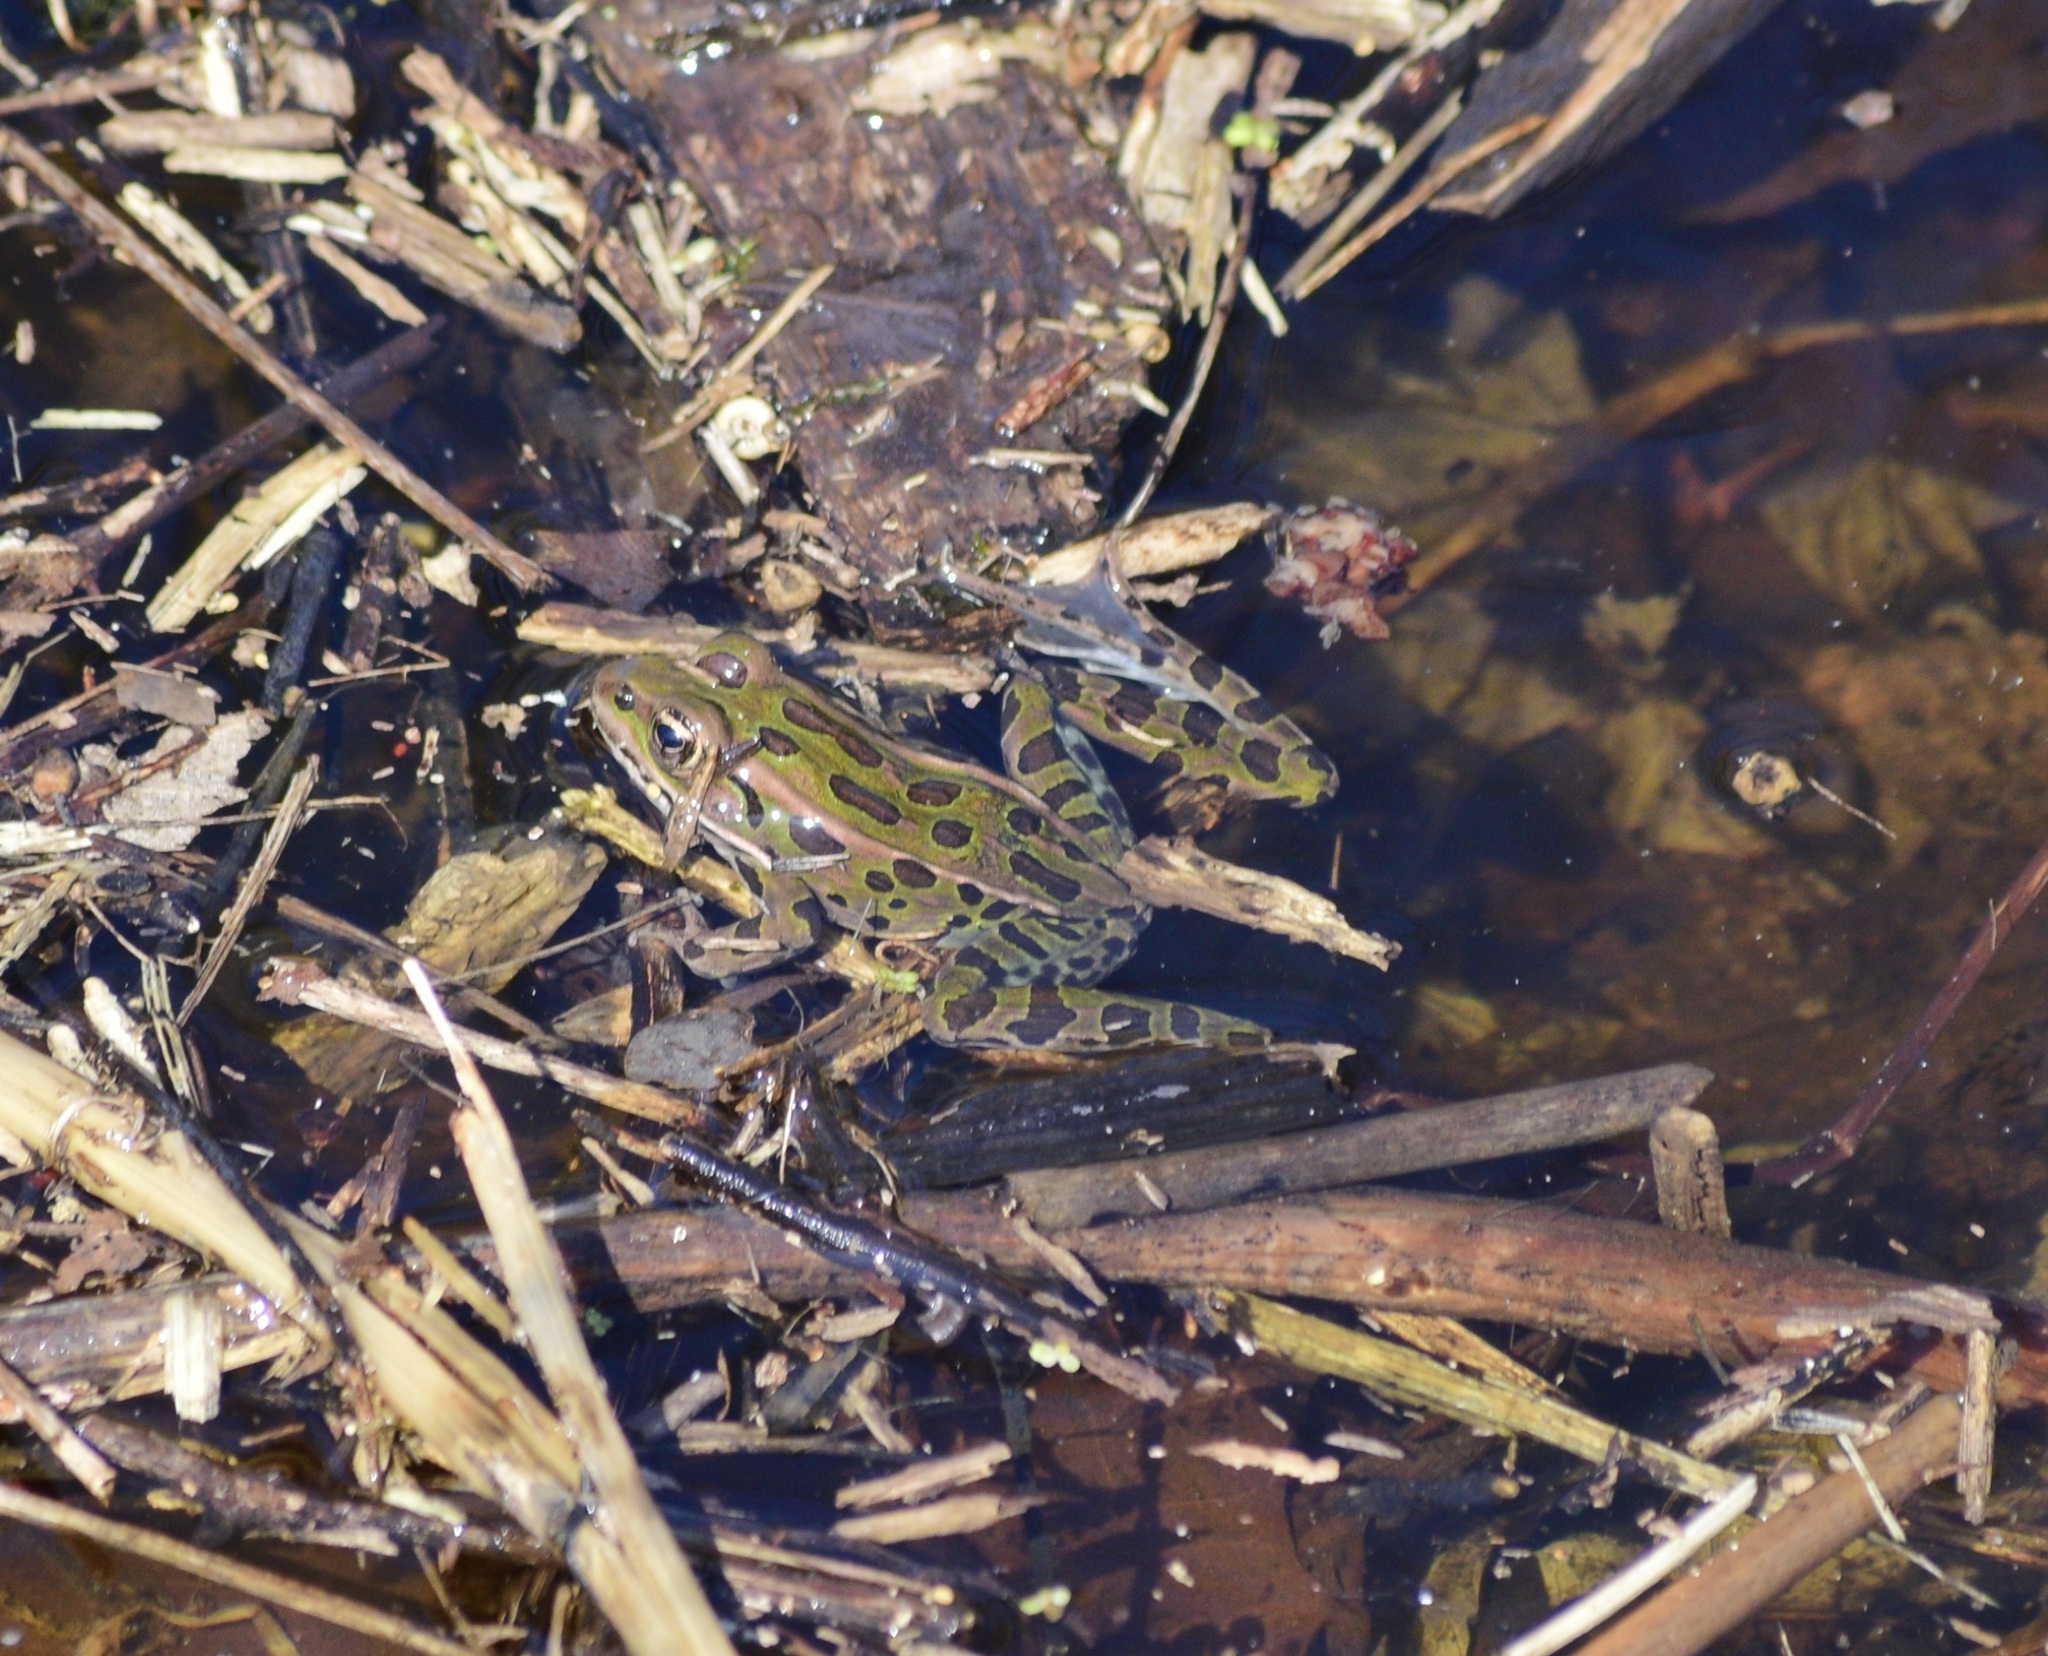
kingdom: Animalia
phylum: Chordata
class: Amphibia
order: Anura
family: Ranidae
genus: Lithobates
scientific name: Lithobates pipiens
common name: Northern leopard frog
